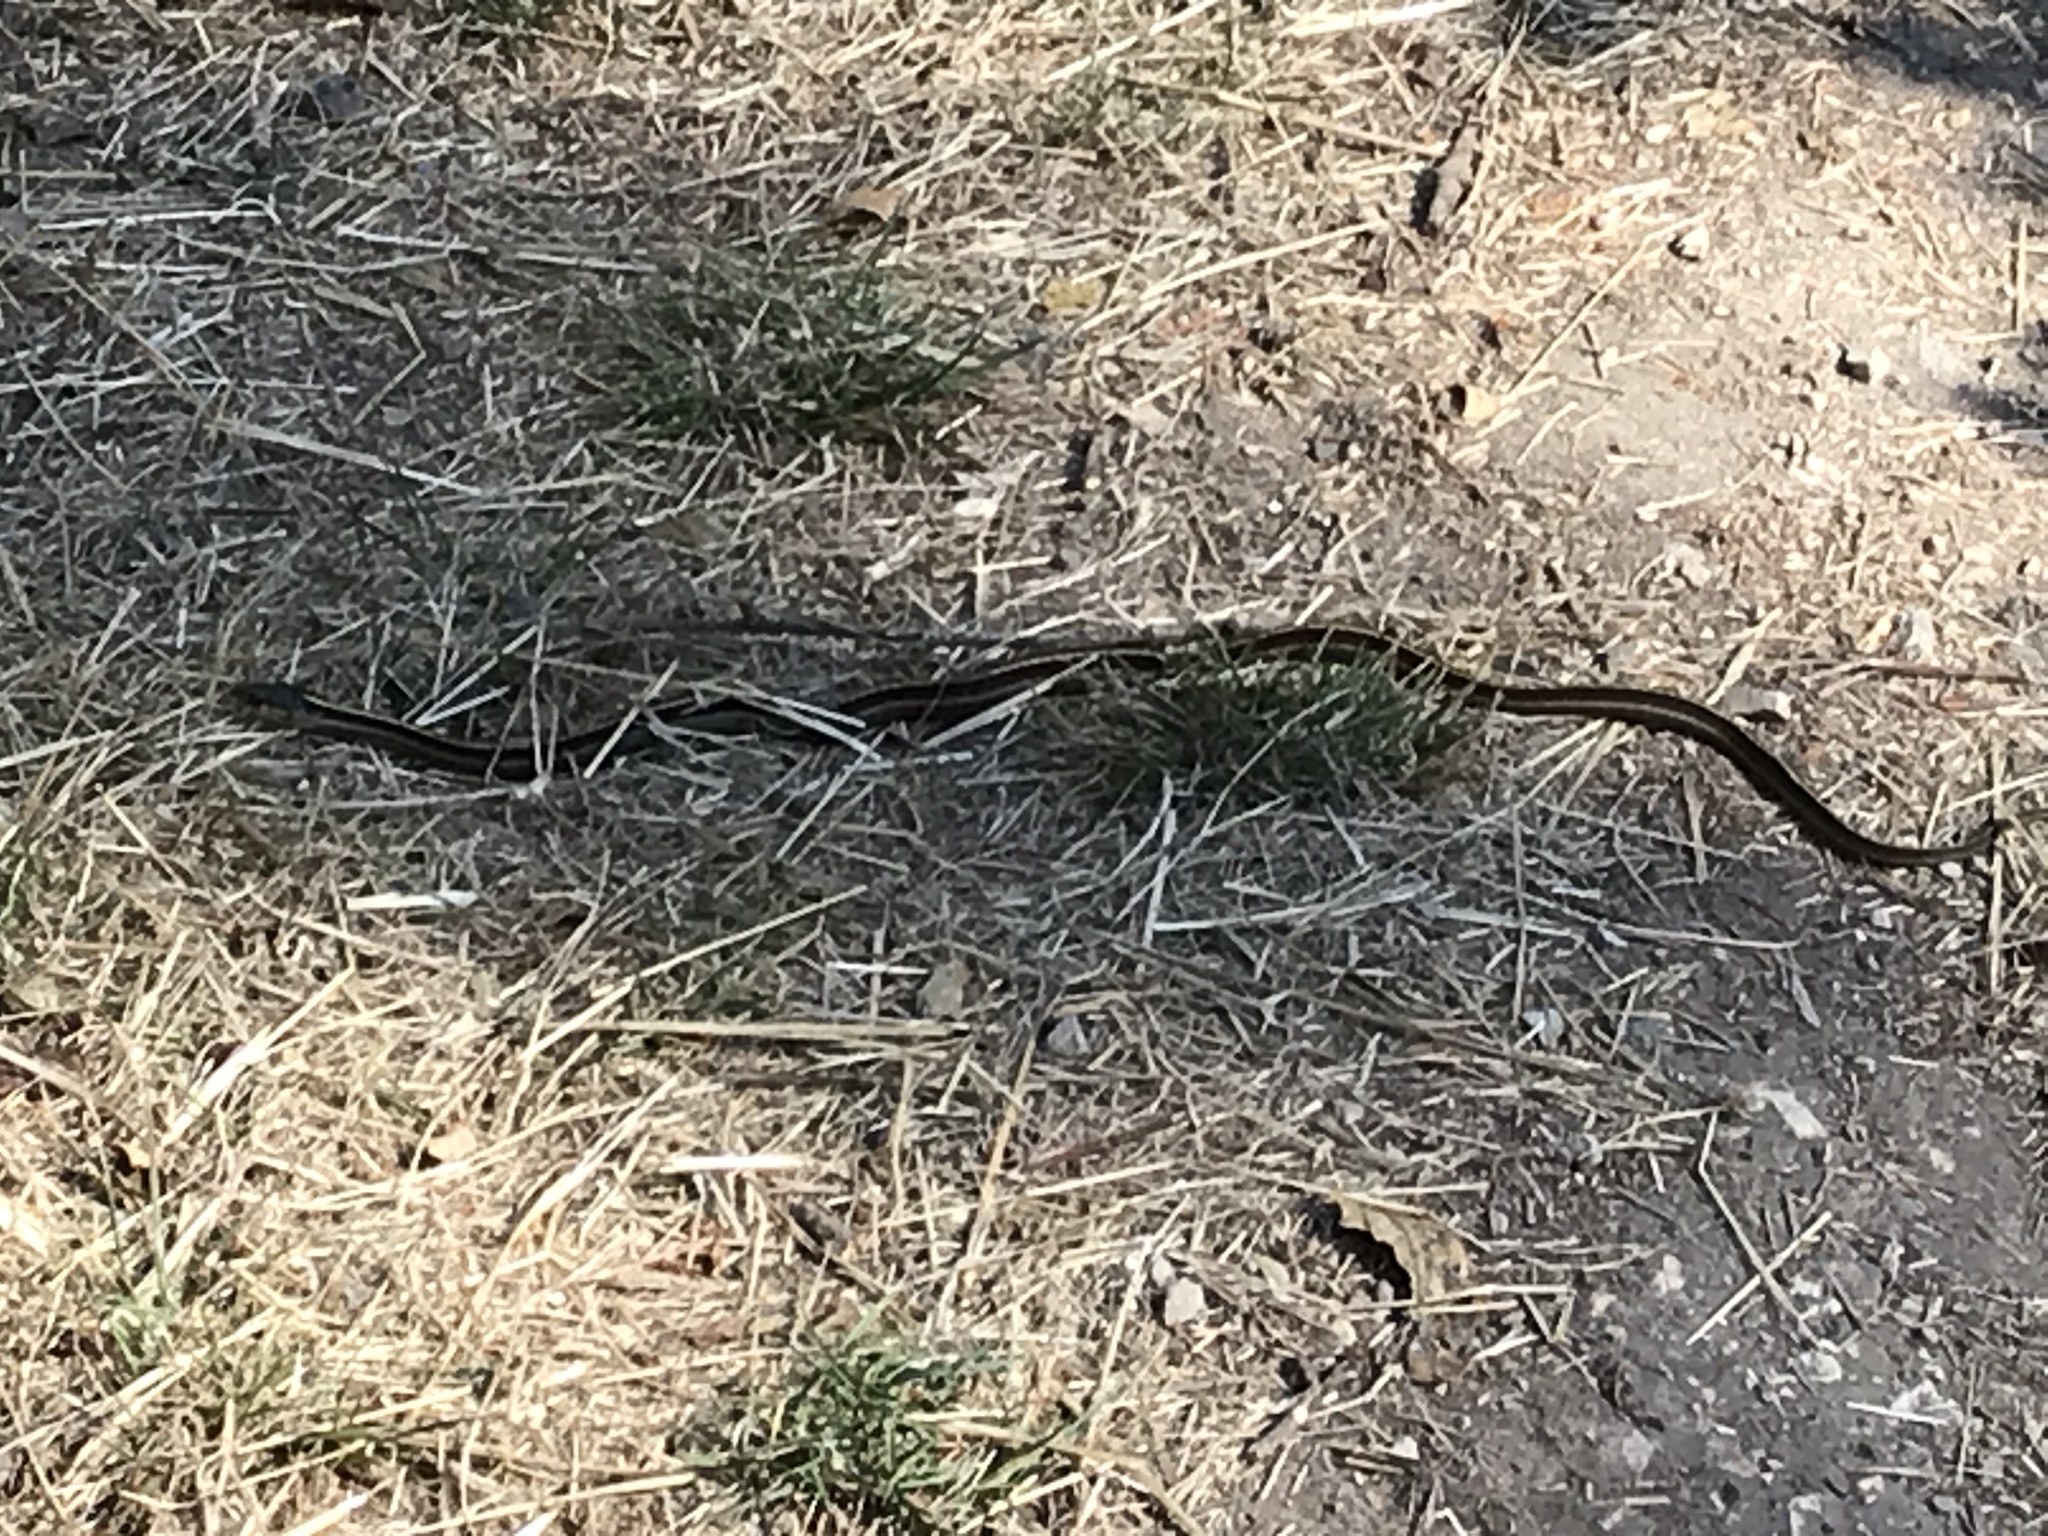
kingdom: Animalia
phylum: Chordata
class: Squamata
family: Colubridae
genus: Thamnophis
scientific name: Thamnophis elegans
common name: Western terrestrial garter snake
